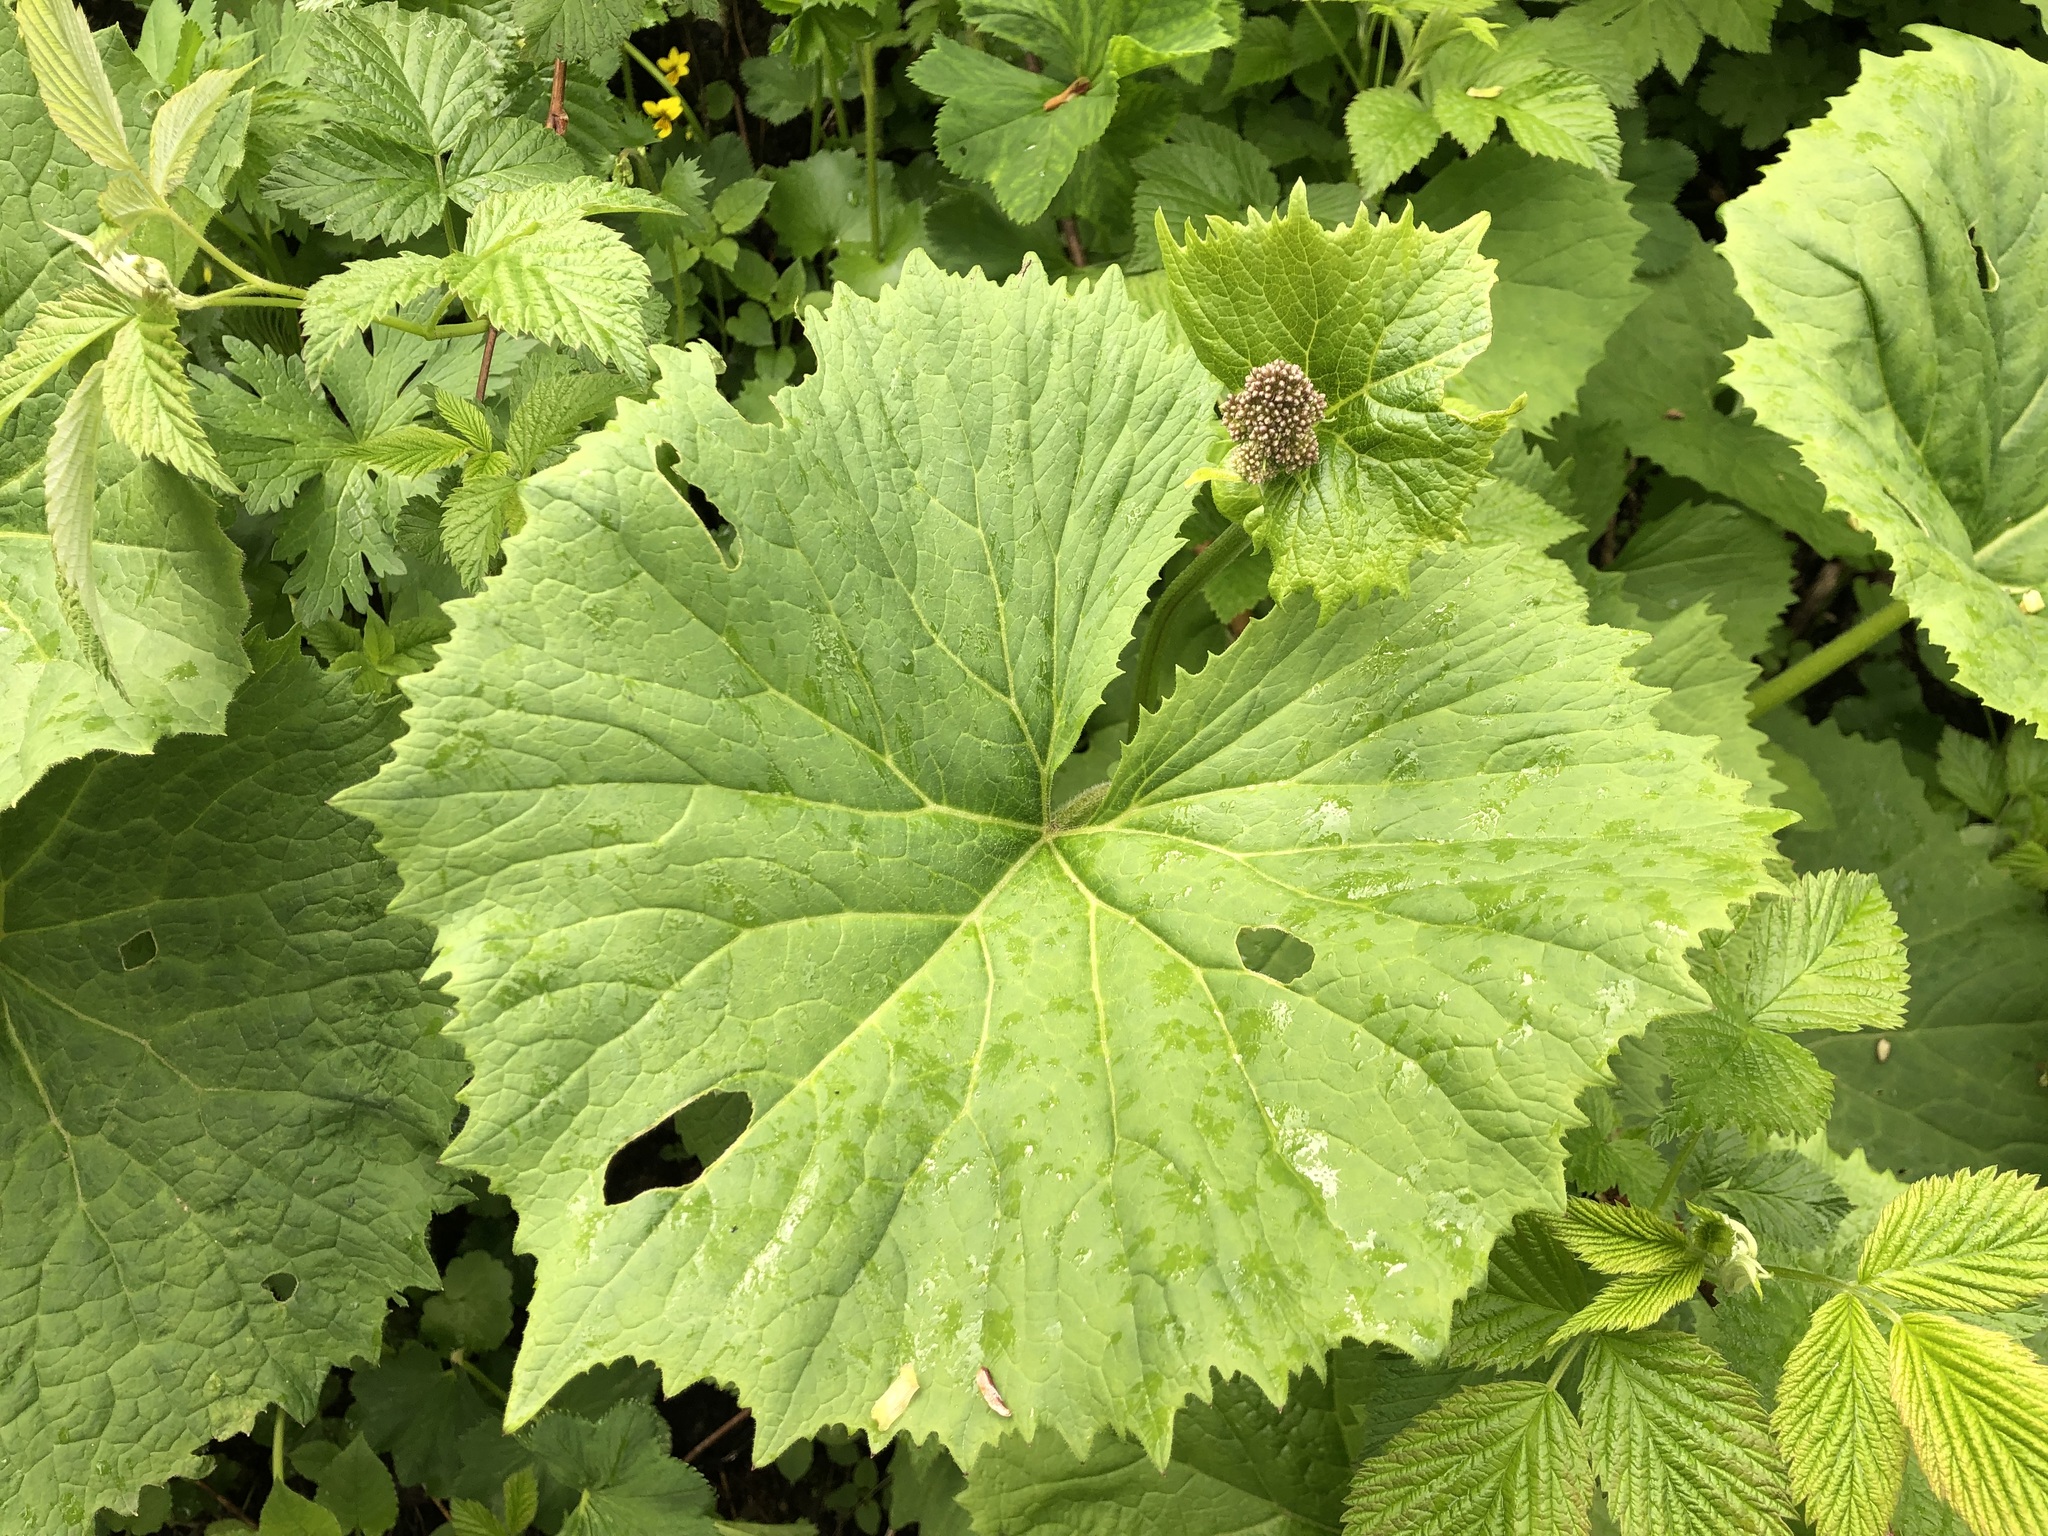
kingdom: Plantae
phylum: Tracheophyta
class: Magnoliopsida
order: Asterales
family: Asteraceae
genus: Adenostyles
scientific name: Adenostyles alliariae
